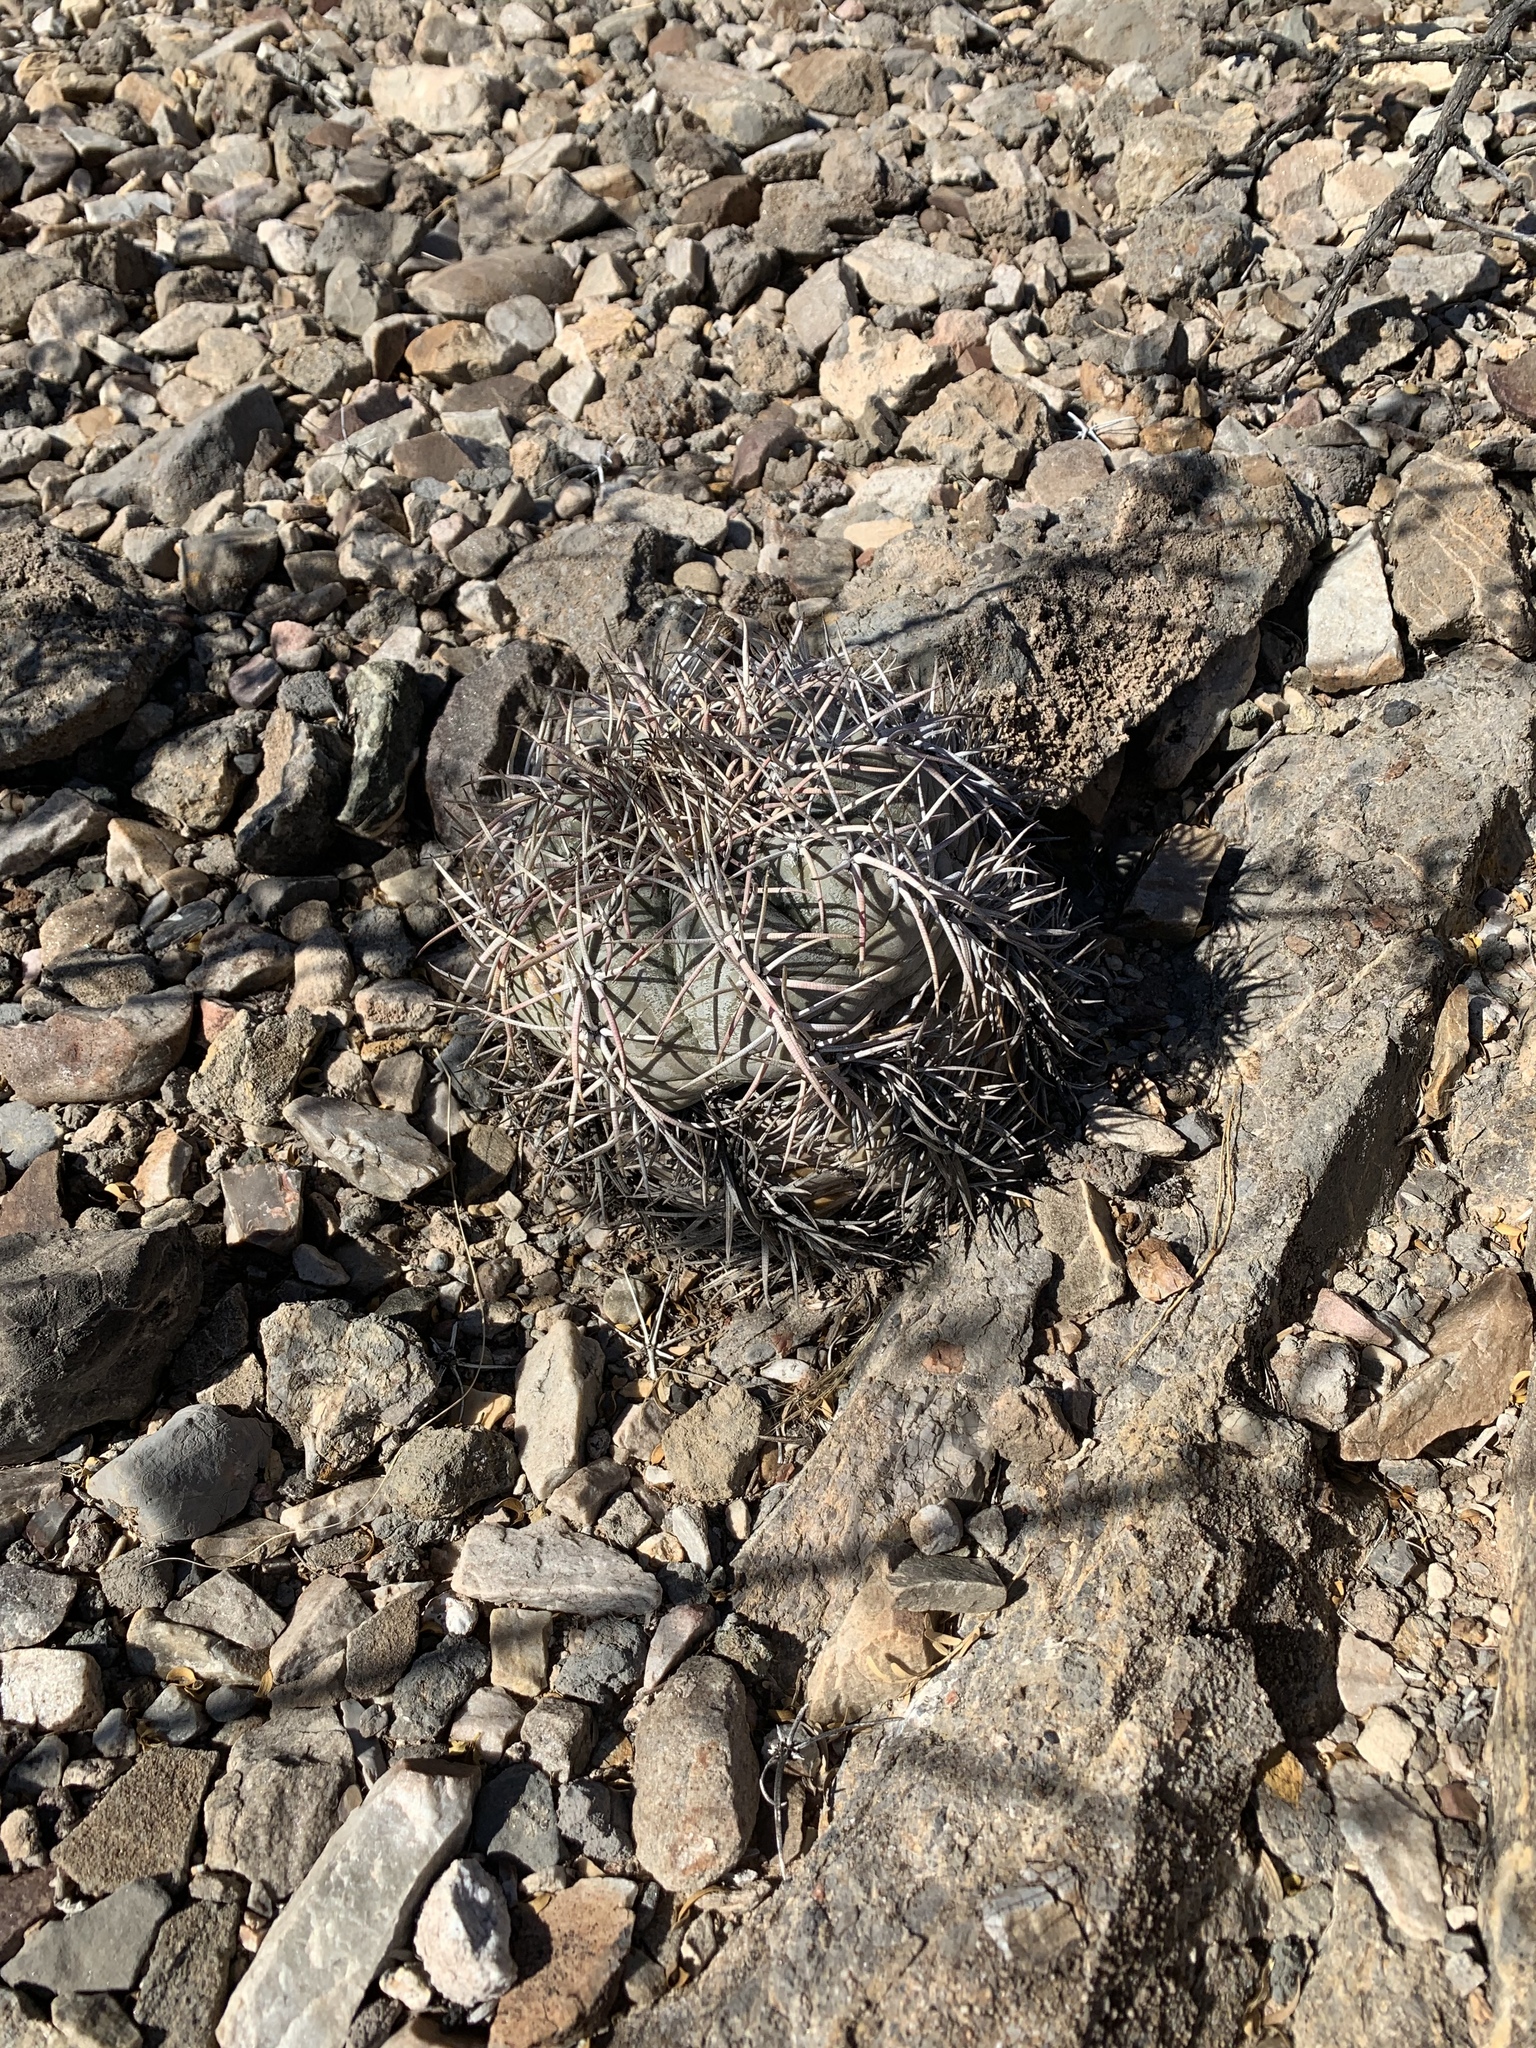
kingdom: Plantae
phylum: Tracheophyta
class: Magnoliopsida
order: Caryophyllales
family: Cactaceae
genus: Echinocactus
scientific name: Echinocactus horizonthalonius
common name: Devilshead
